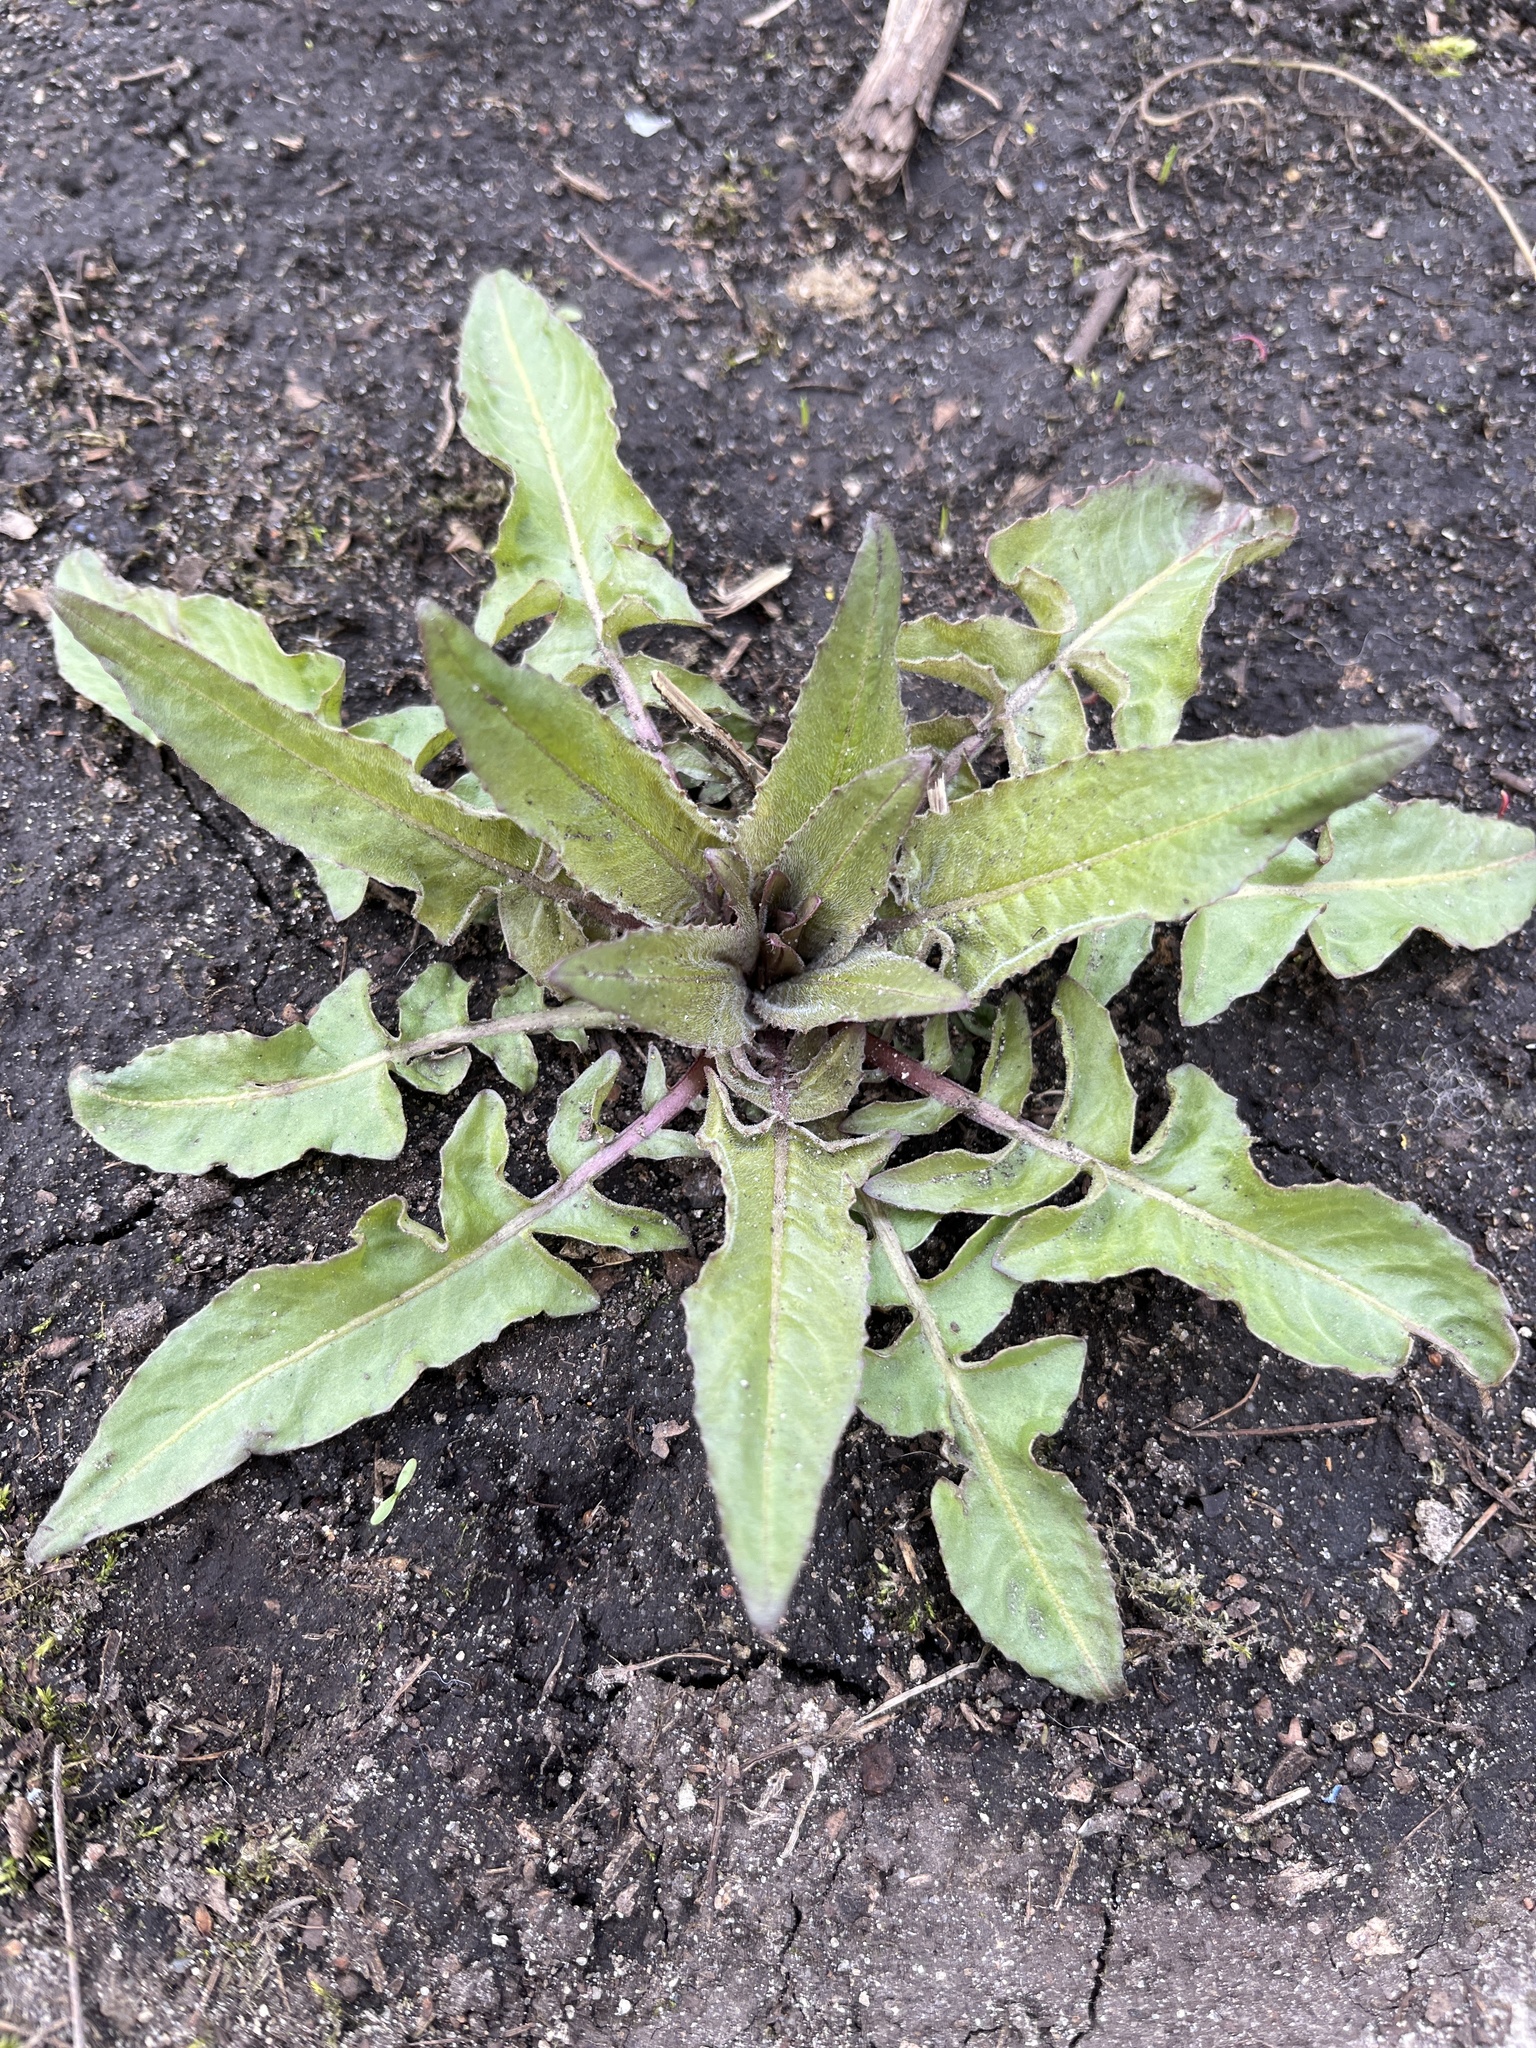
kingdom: Plantae
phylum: Tracheophyta
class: Magnoliopsida
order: Brassicales
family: Brassicaceae
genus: Bunias
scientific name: Bunias orientalis
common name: Warty-cabbage
